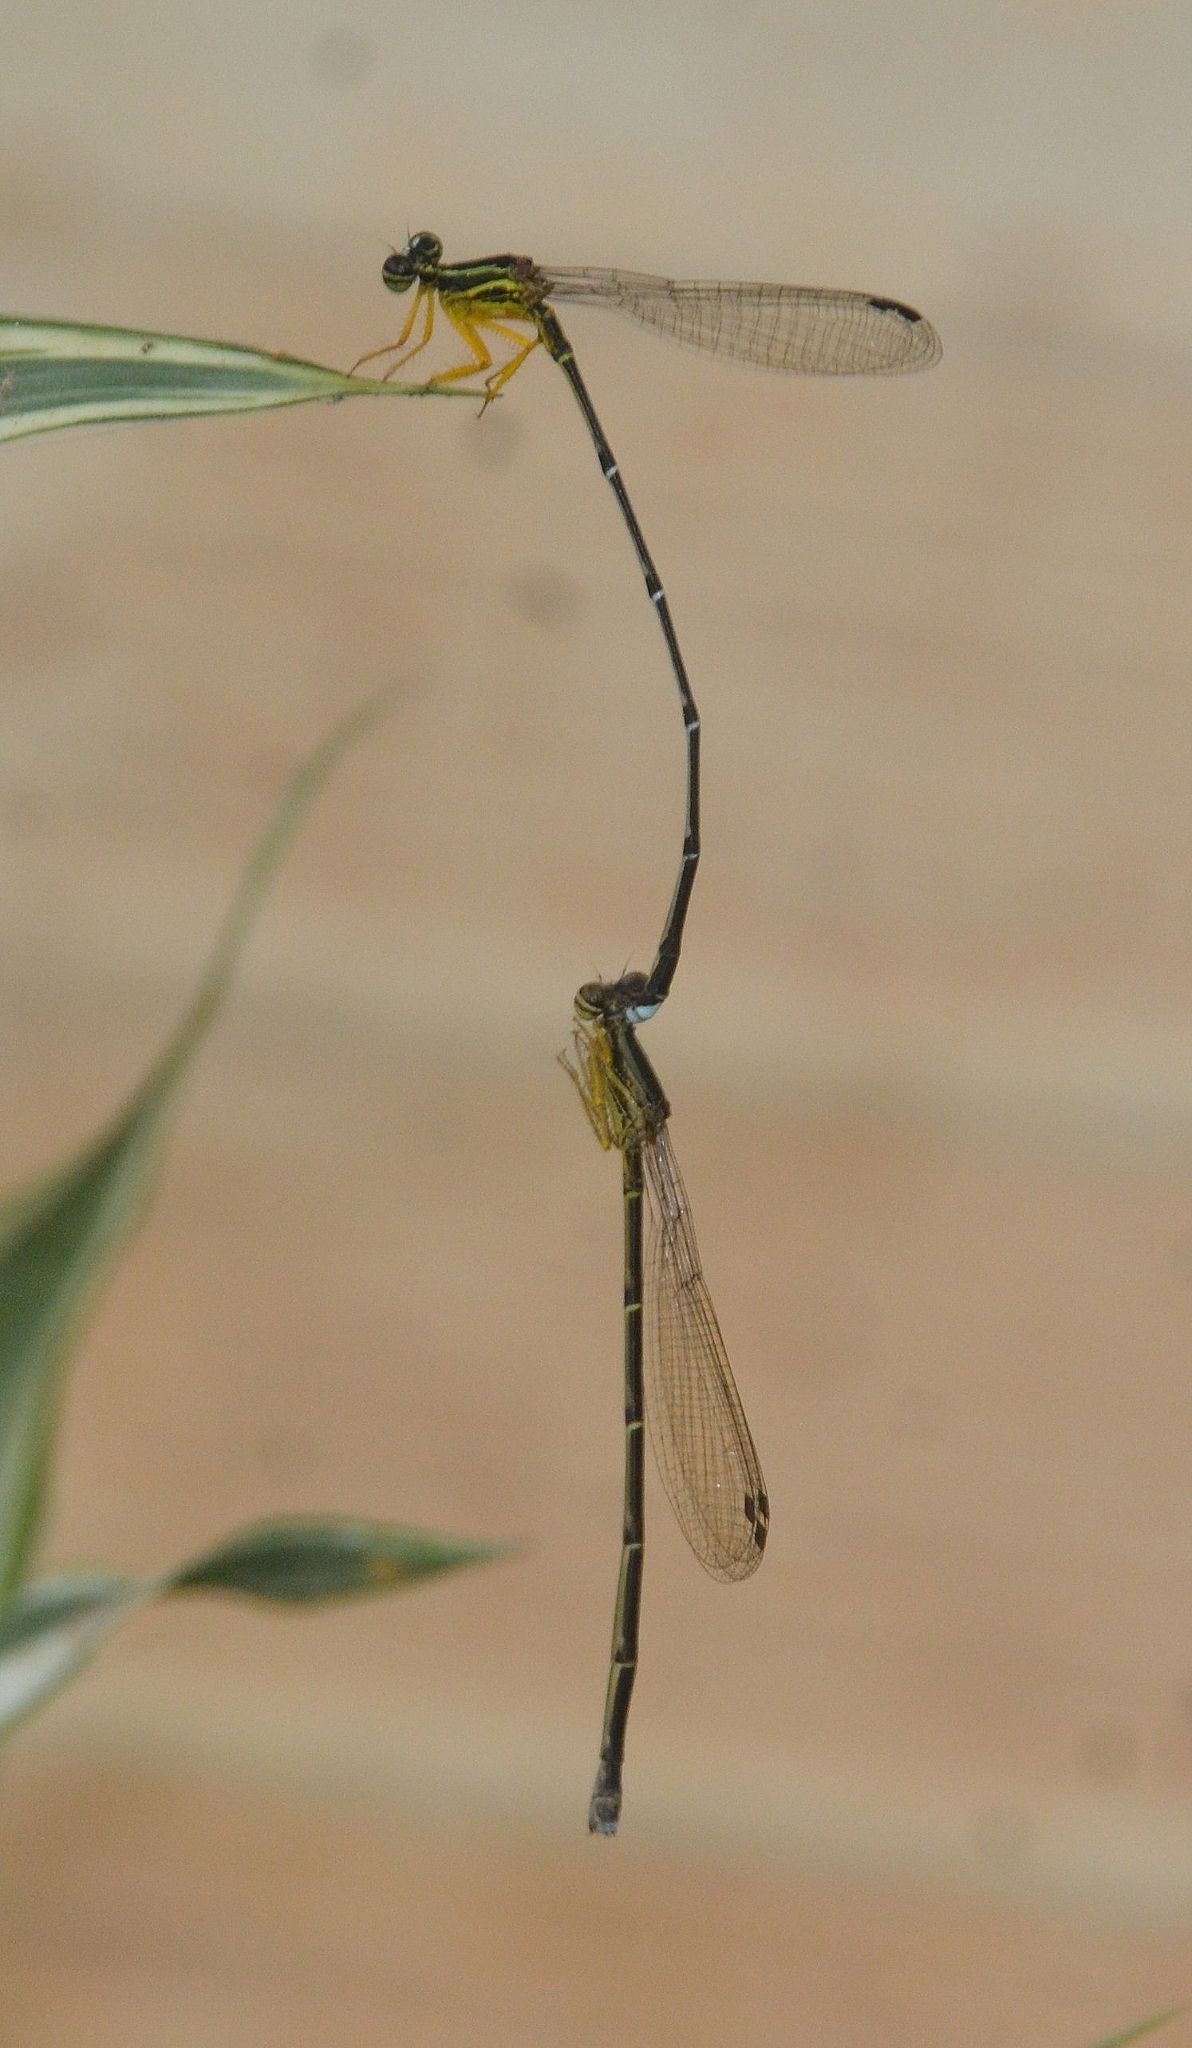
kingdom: Animalia
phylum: Arthropoda
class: Insecta
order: Odonata
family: Platycnemididae
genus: Copera
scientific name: Copera marginipes
